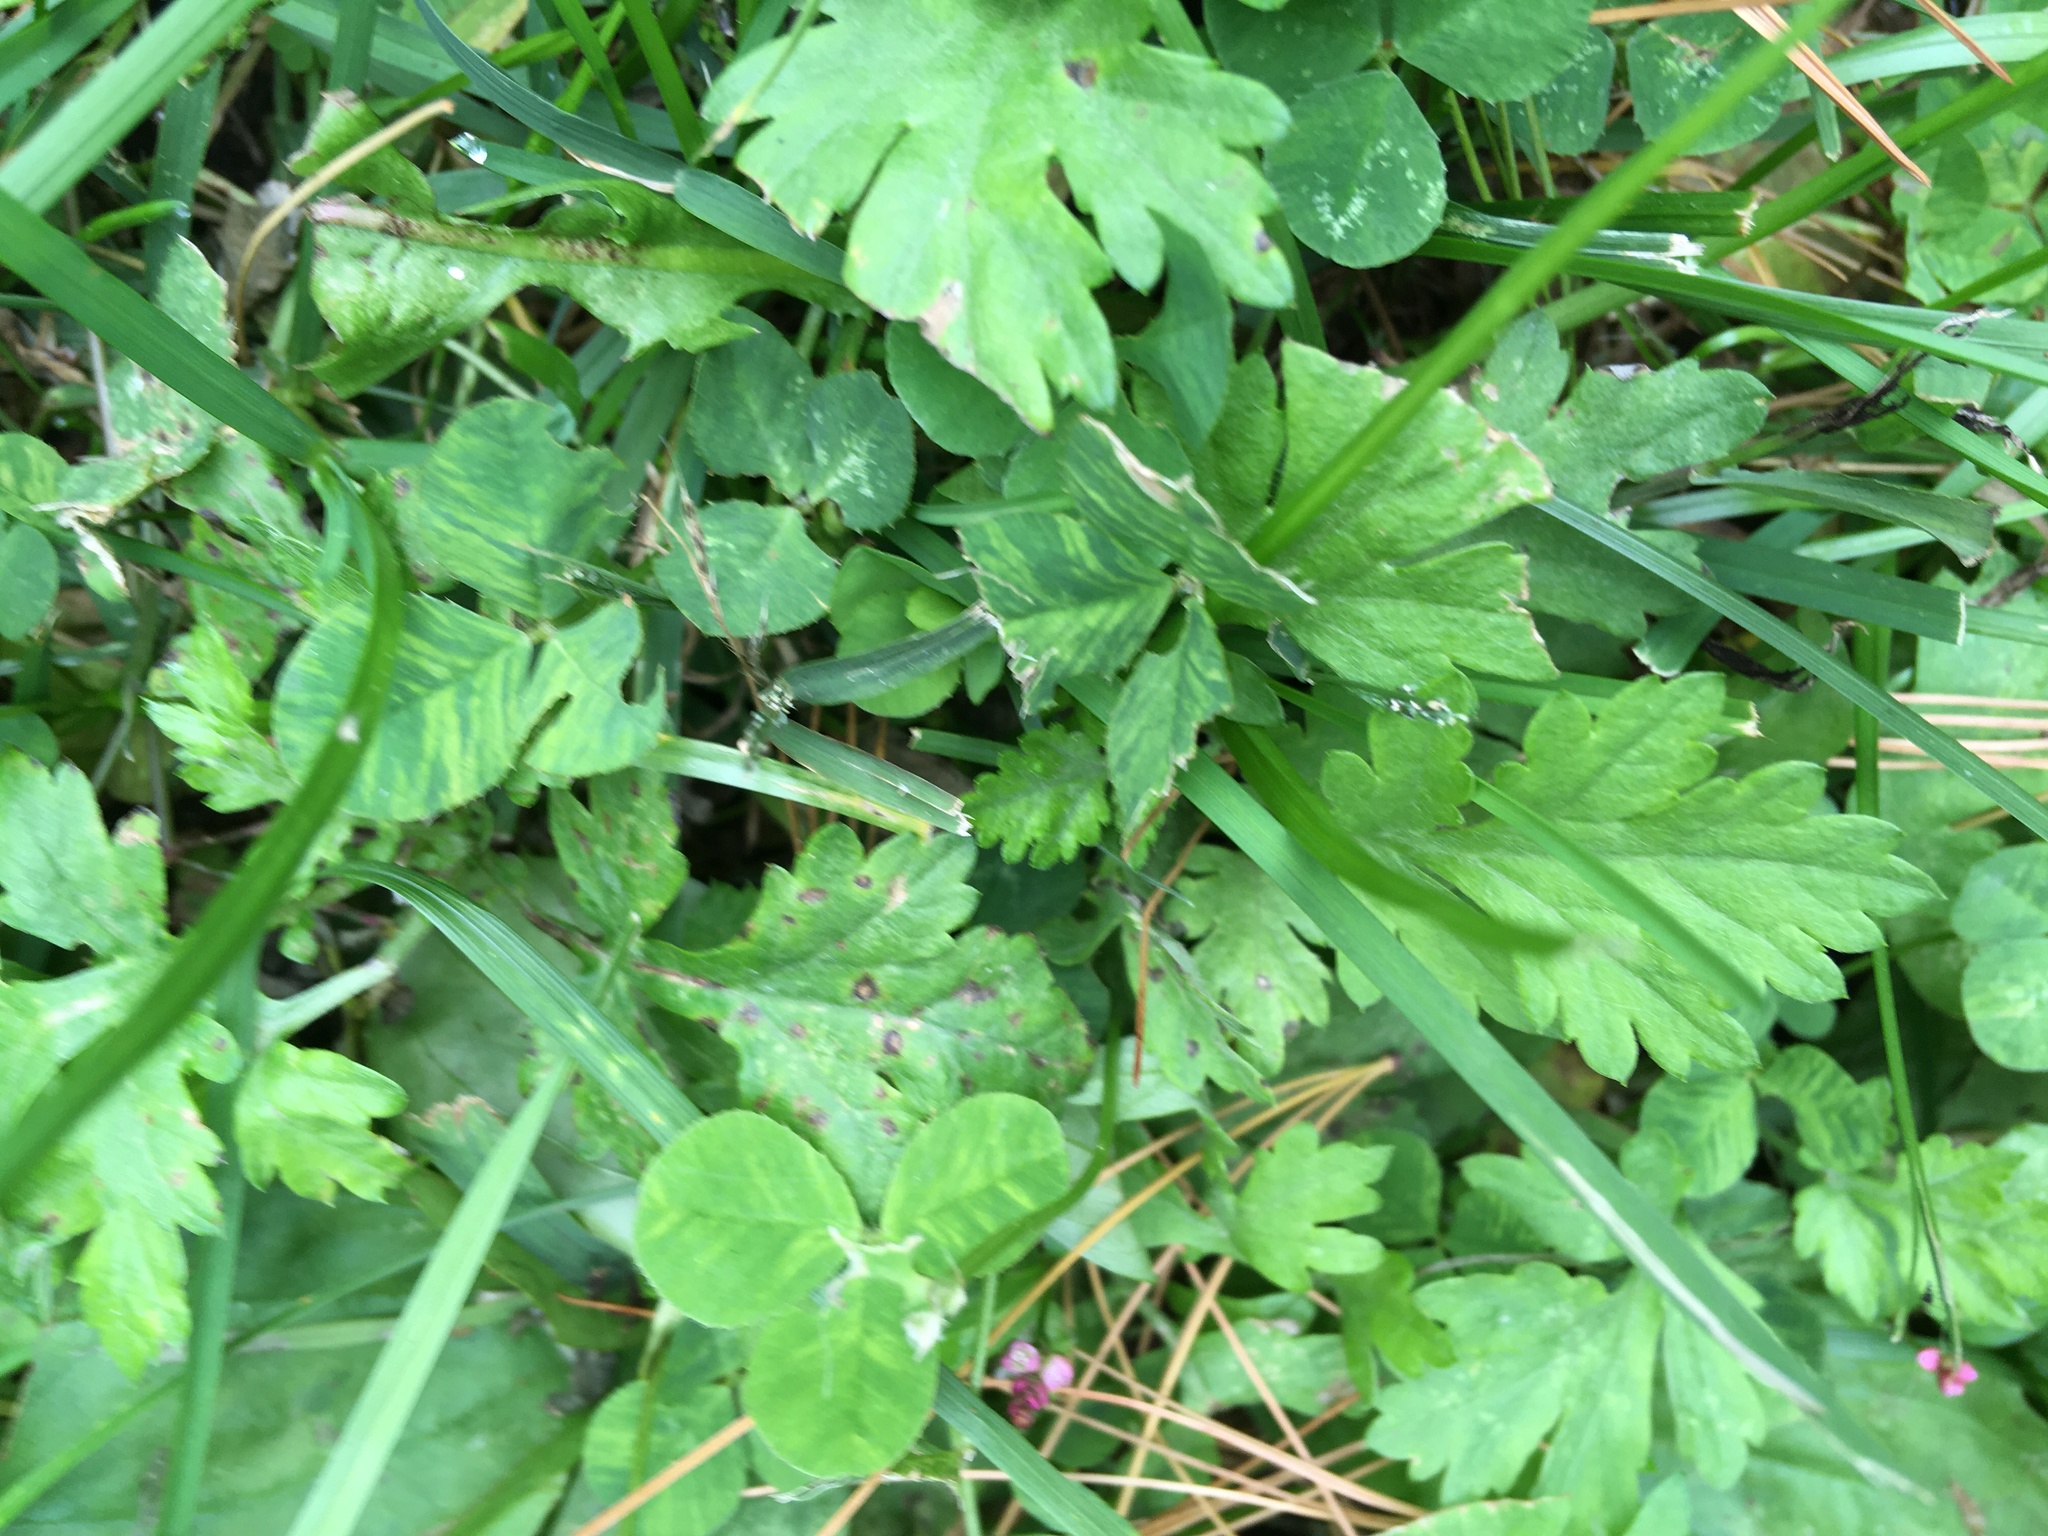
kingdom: Plantae
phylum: Tracheophyta
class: Magnoliopsida
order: Asterales
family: Asteraceae
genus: Artemisia
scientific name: Artemisia vulgaris
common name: Mugwort
